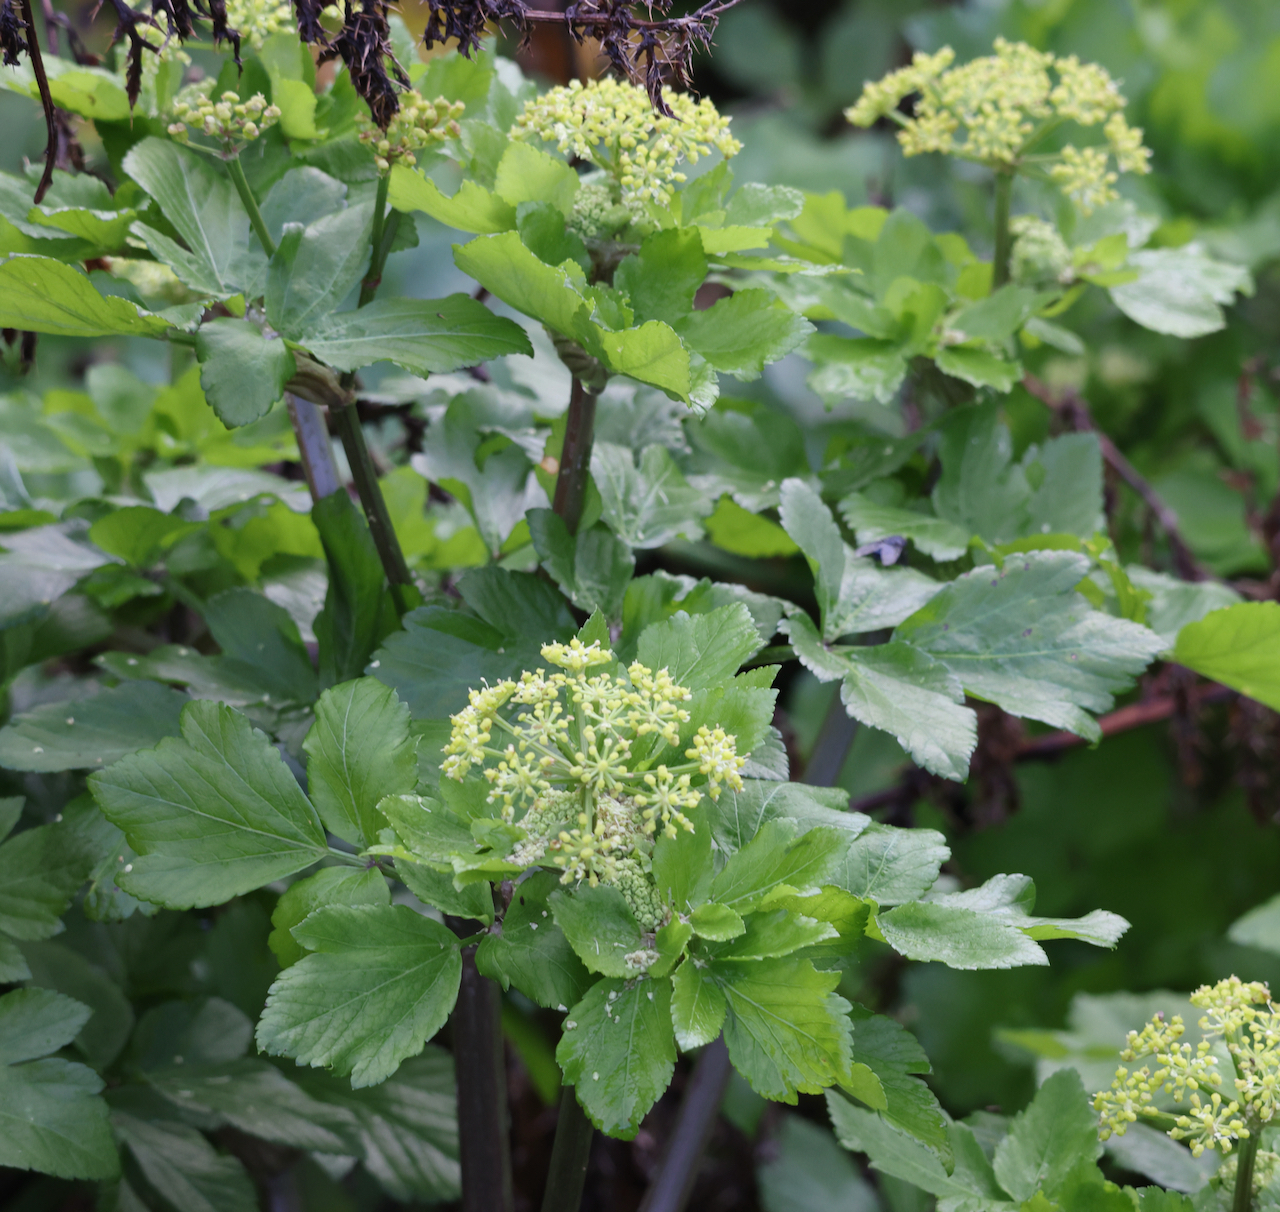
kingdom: Plantae
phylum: Tracheophyta
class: Magnoliopsida
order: Apiales
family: Apiaceae
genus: Smyrnium
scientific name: Smyrnium olusatrum
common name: Alexanders
